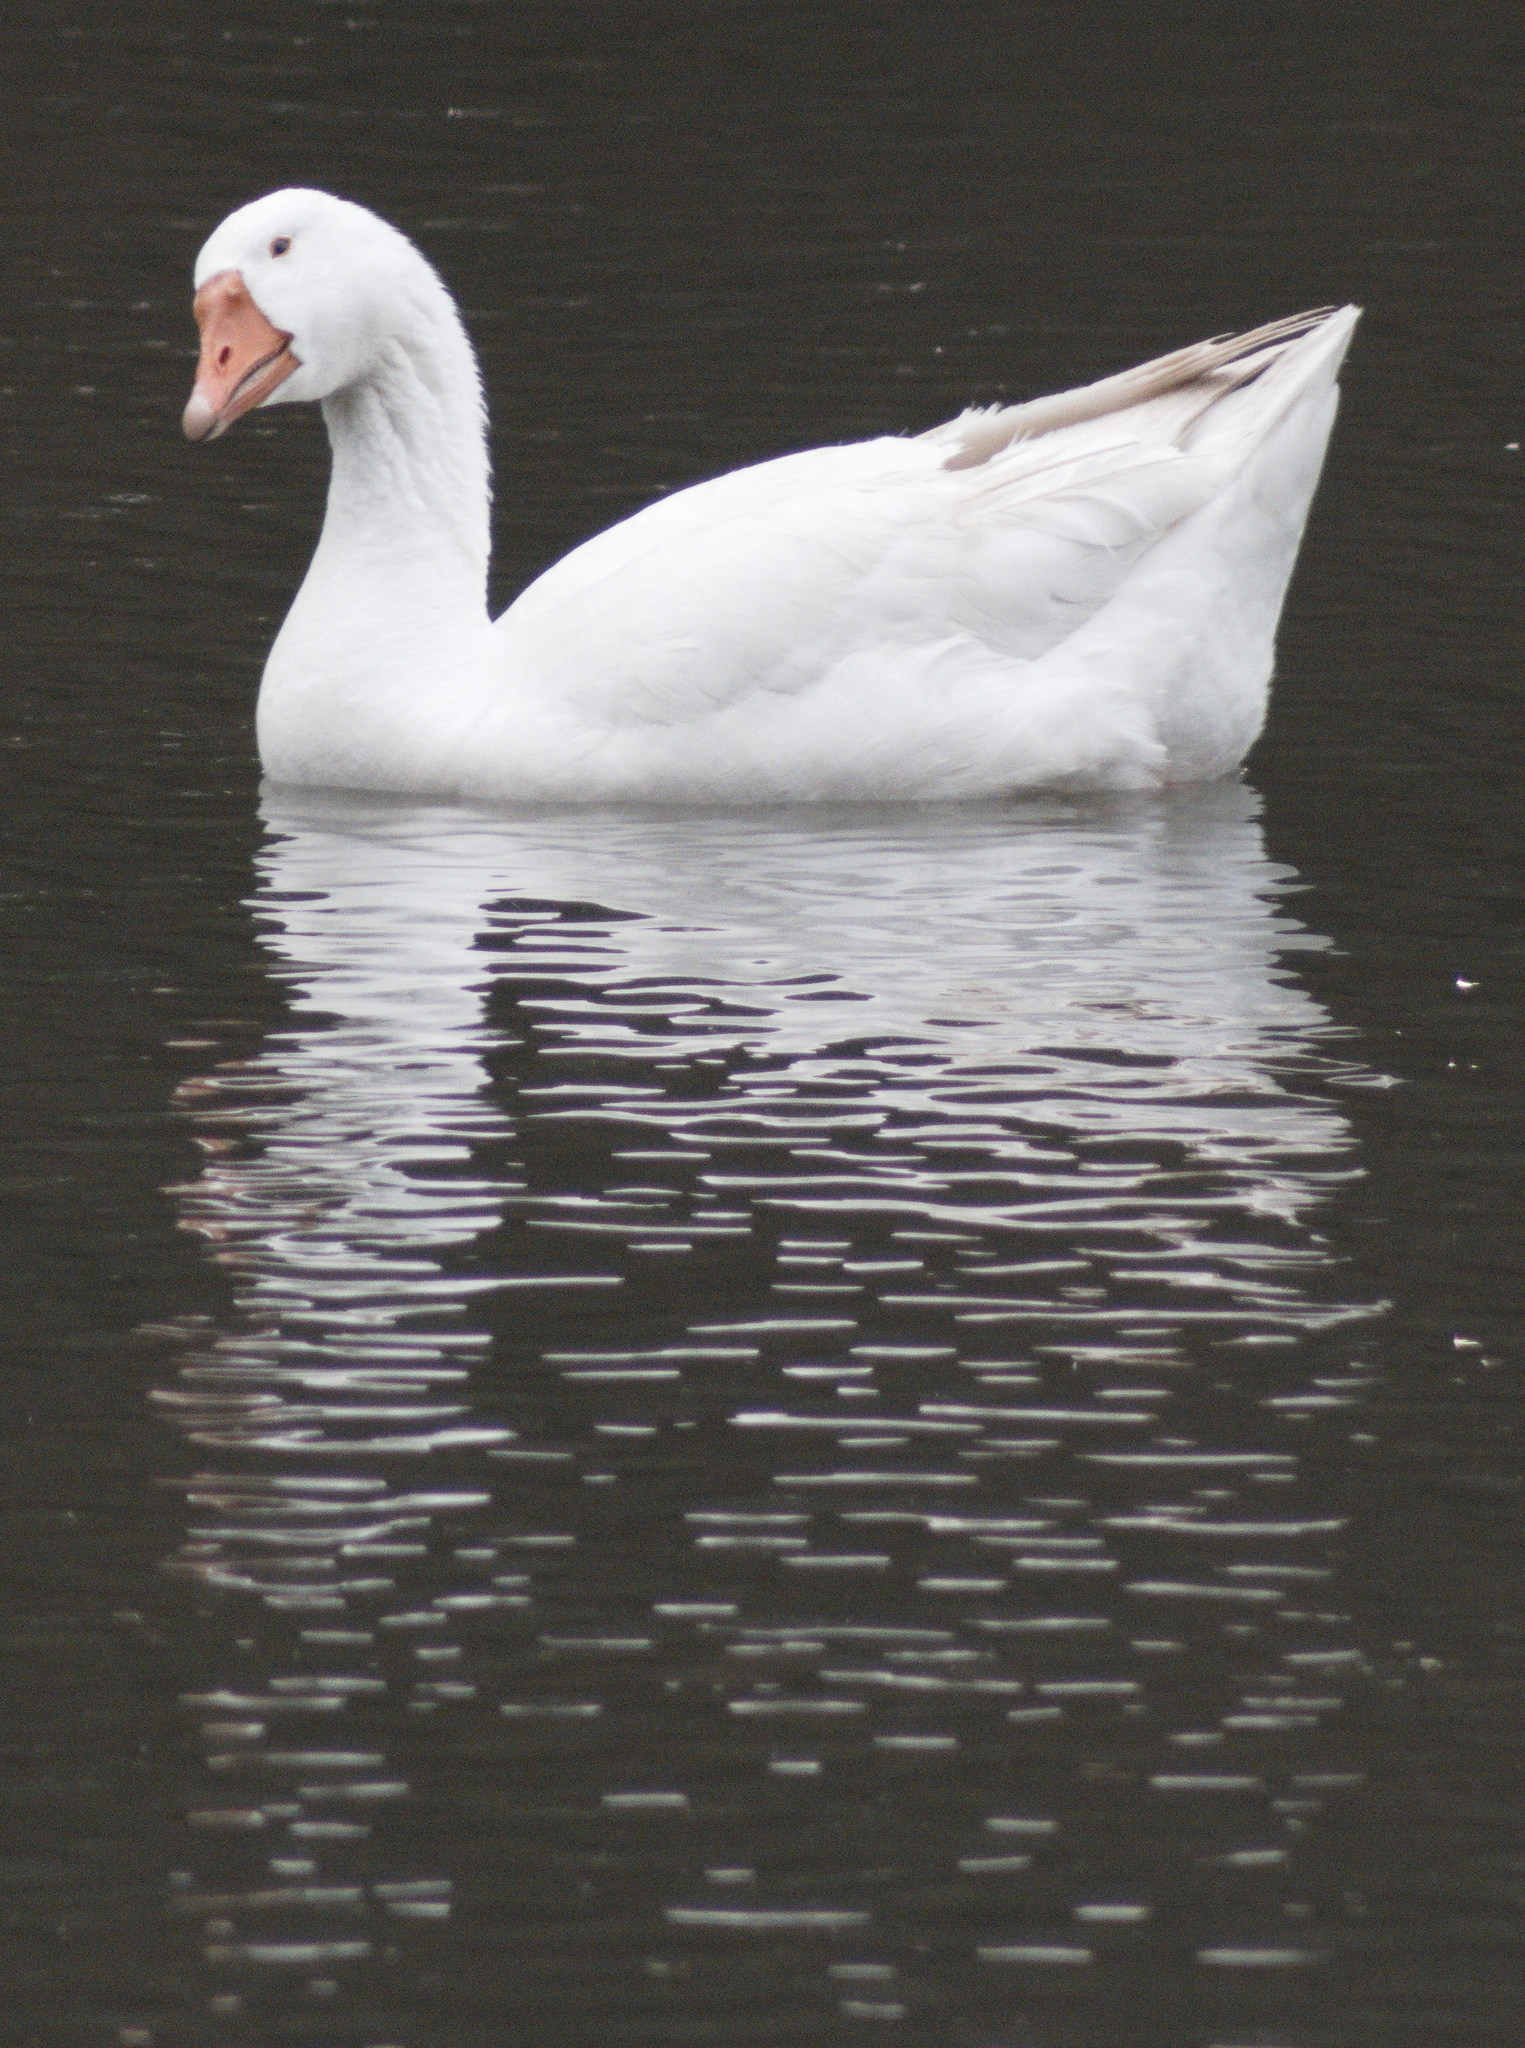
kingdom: Animalia
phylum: Chordata
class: Aves
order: Anseriformes
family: Anatidae
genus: Anser
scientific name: Anser
